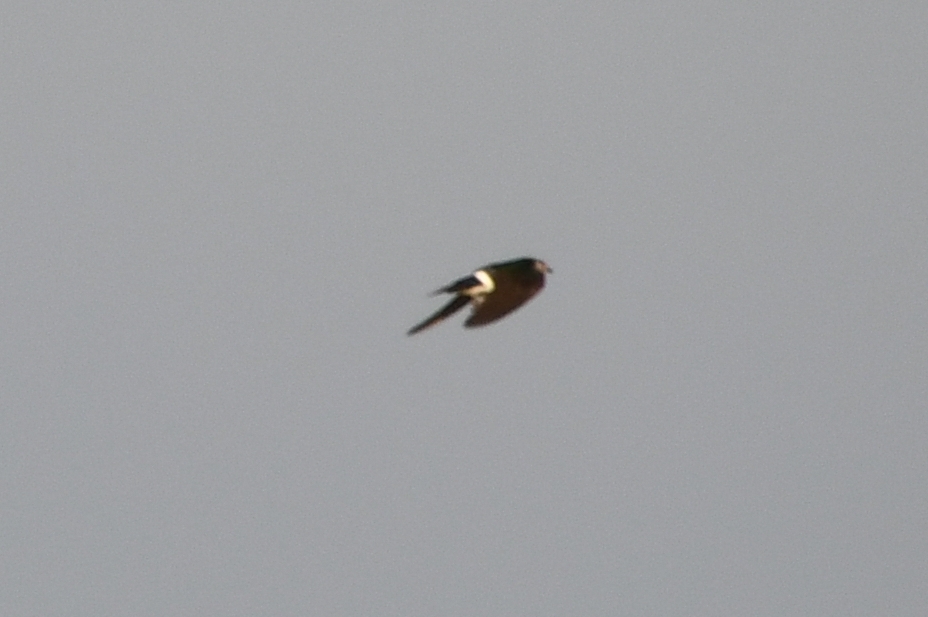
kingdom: Animalia
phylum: Chordata
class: Aves
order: Passeriformes
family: Hirundinidae
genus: Tachycineta
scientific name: Tachycineta thalassina
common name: Violet-green swallow
